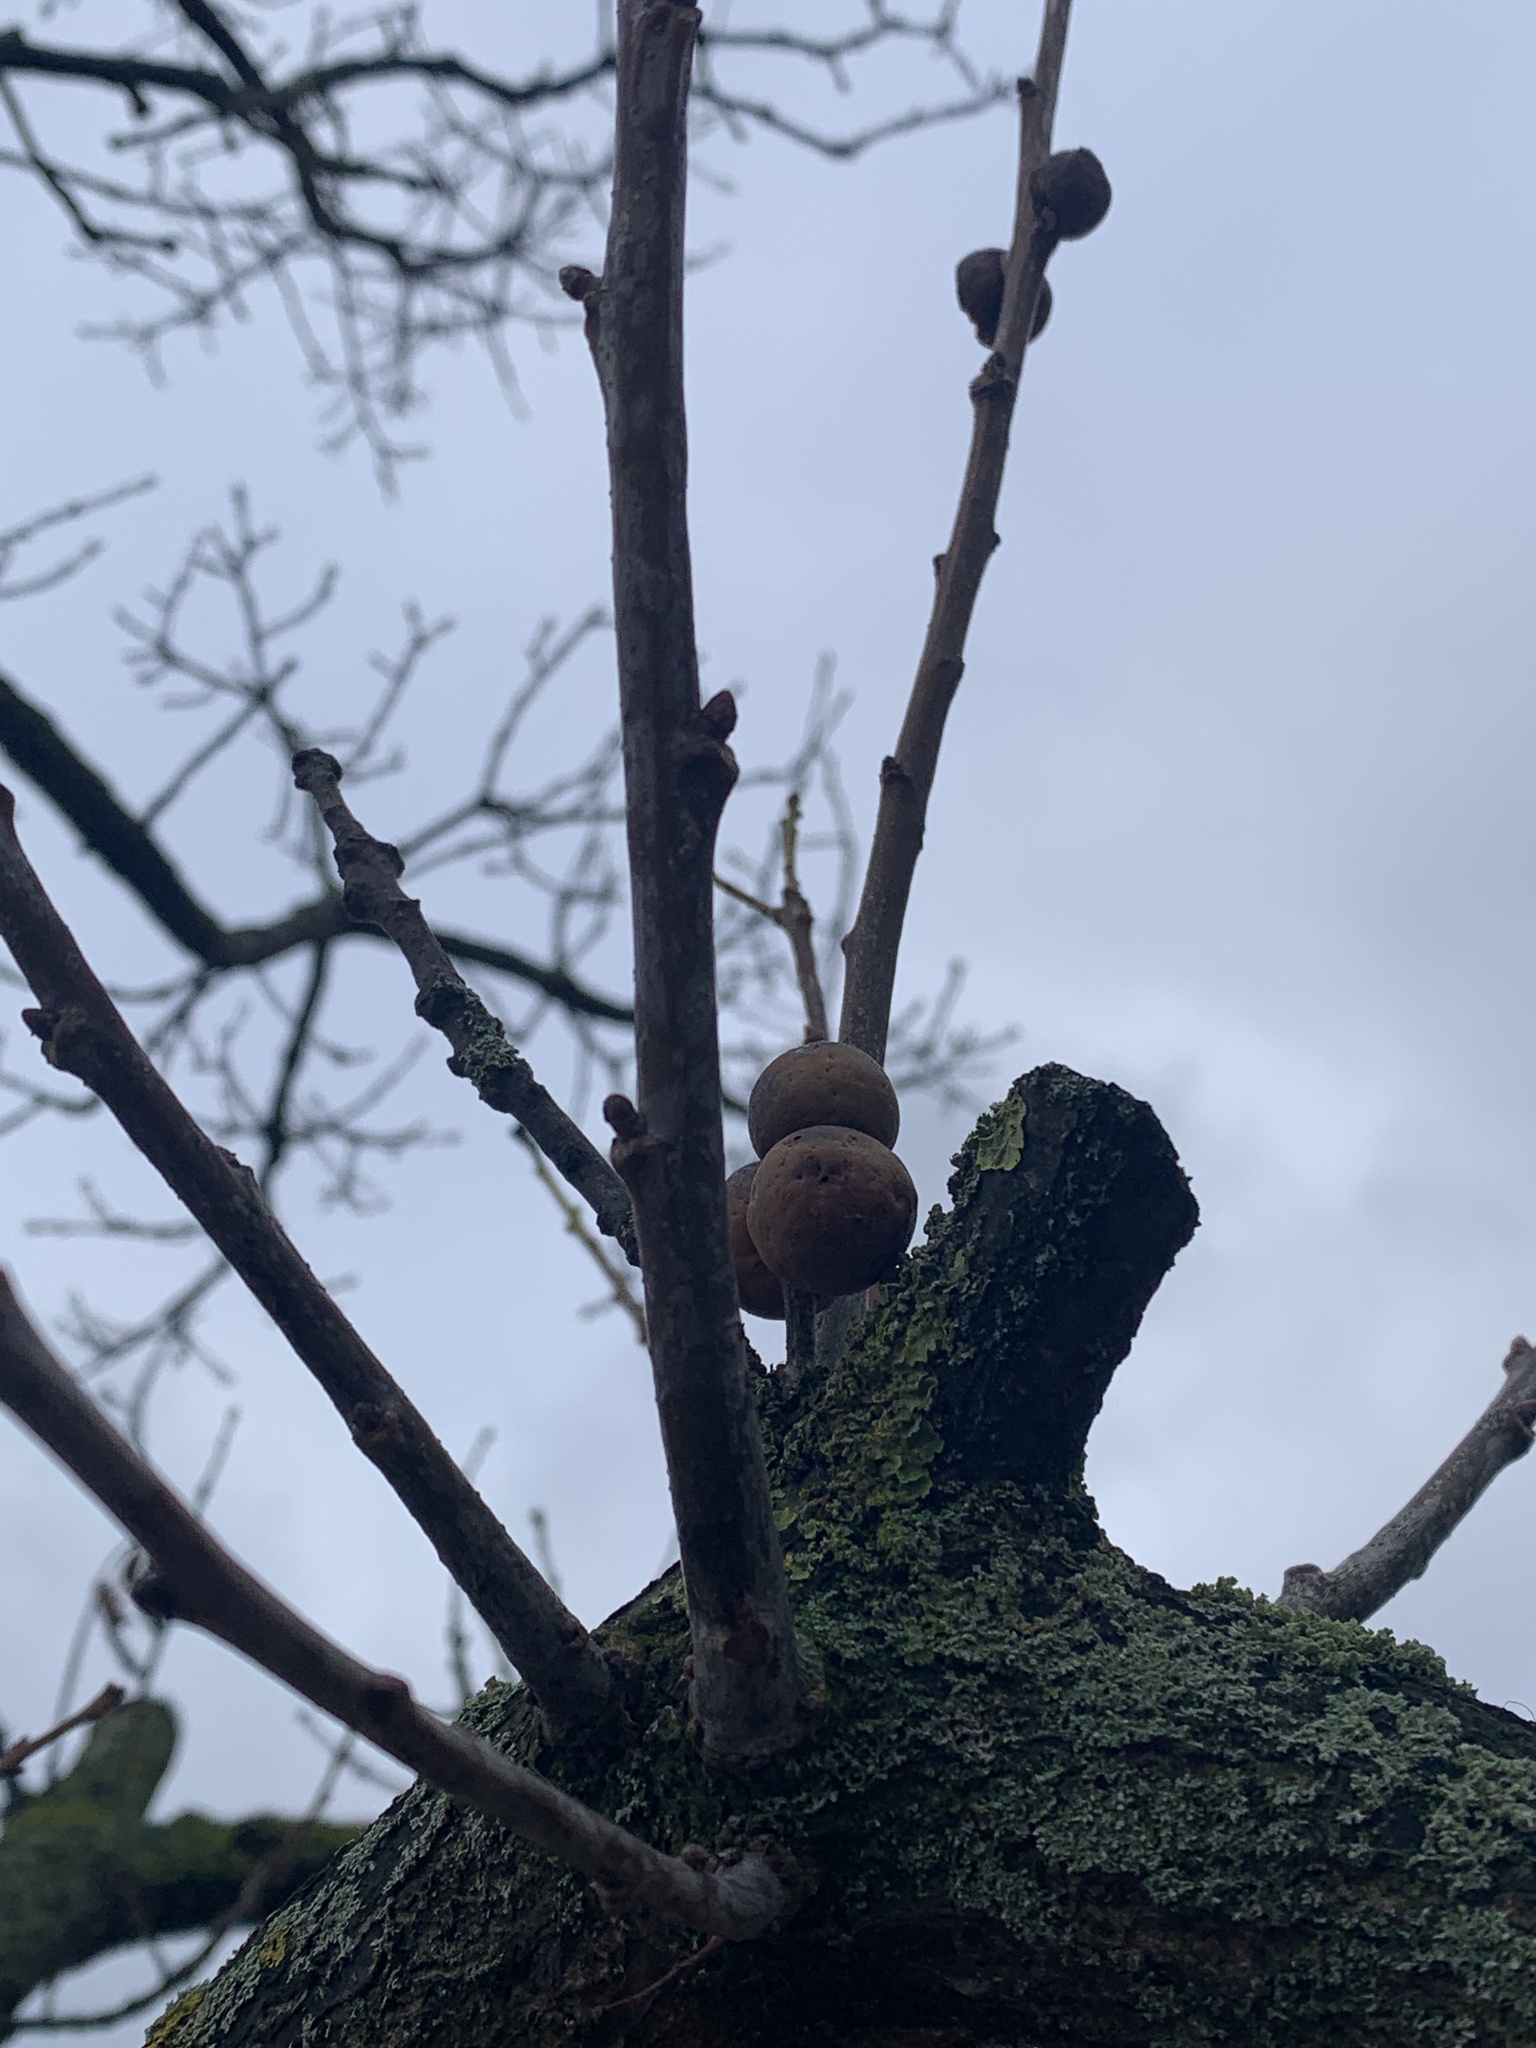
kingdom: Animalia
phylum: Arthropoda
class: Insecta
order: Hymenoptera
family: Cynipidae
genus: Andricus
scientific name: Andricus kollari
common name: Marble gall
